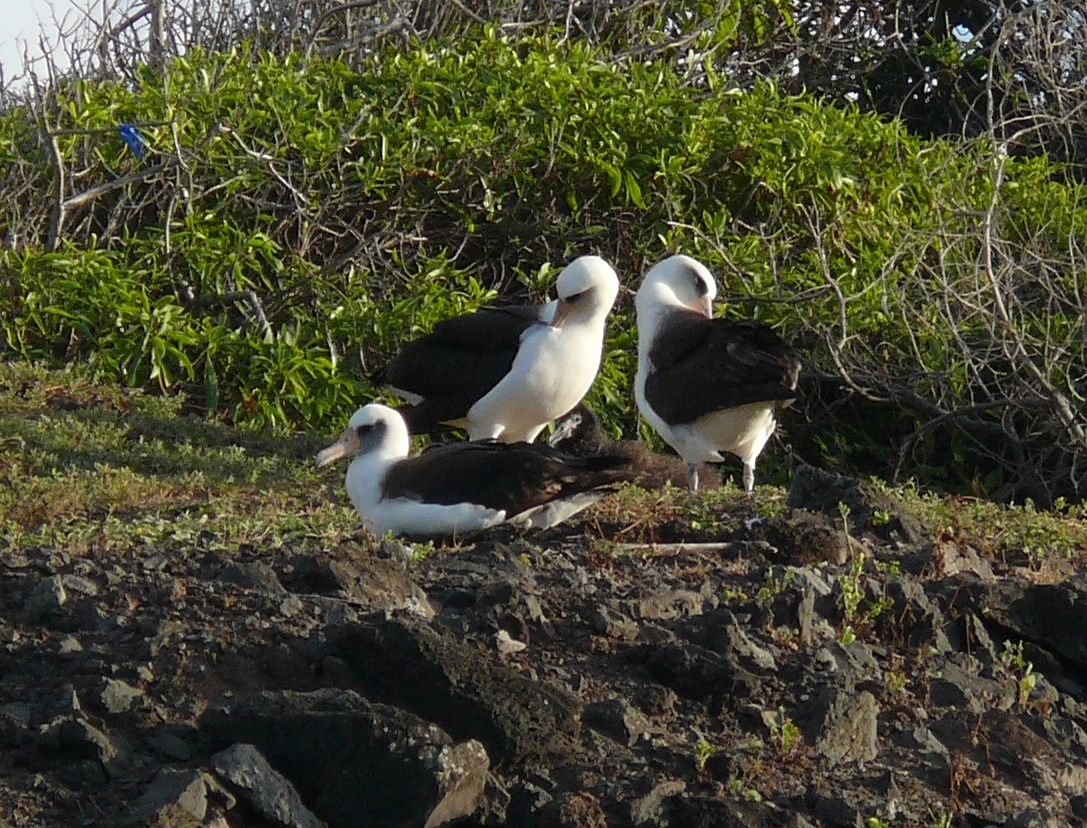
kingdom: Animalia
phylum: Chordata
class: Aves
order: Procellariiformes
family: Diomedeidae
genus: Phoebastria
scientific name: Phoebastria immutabilis
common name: Laysan albatross
